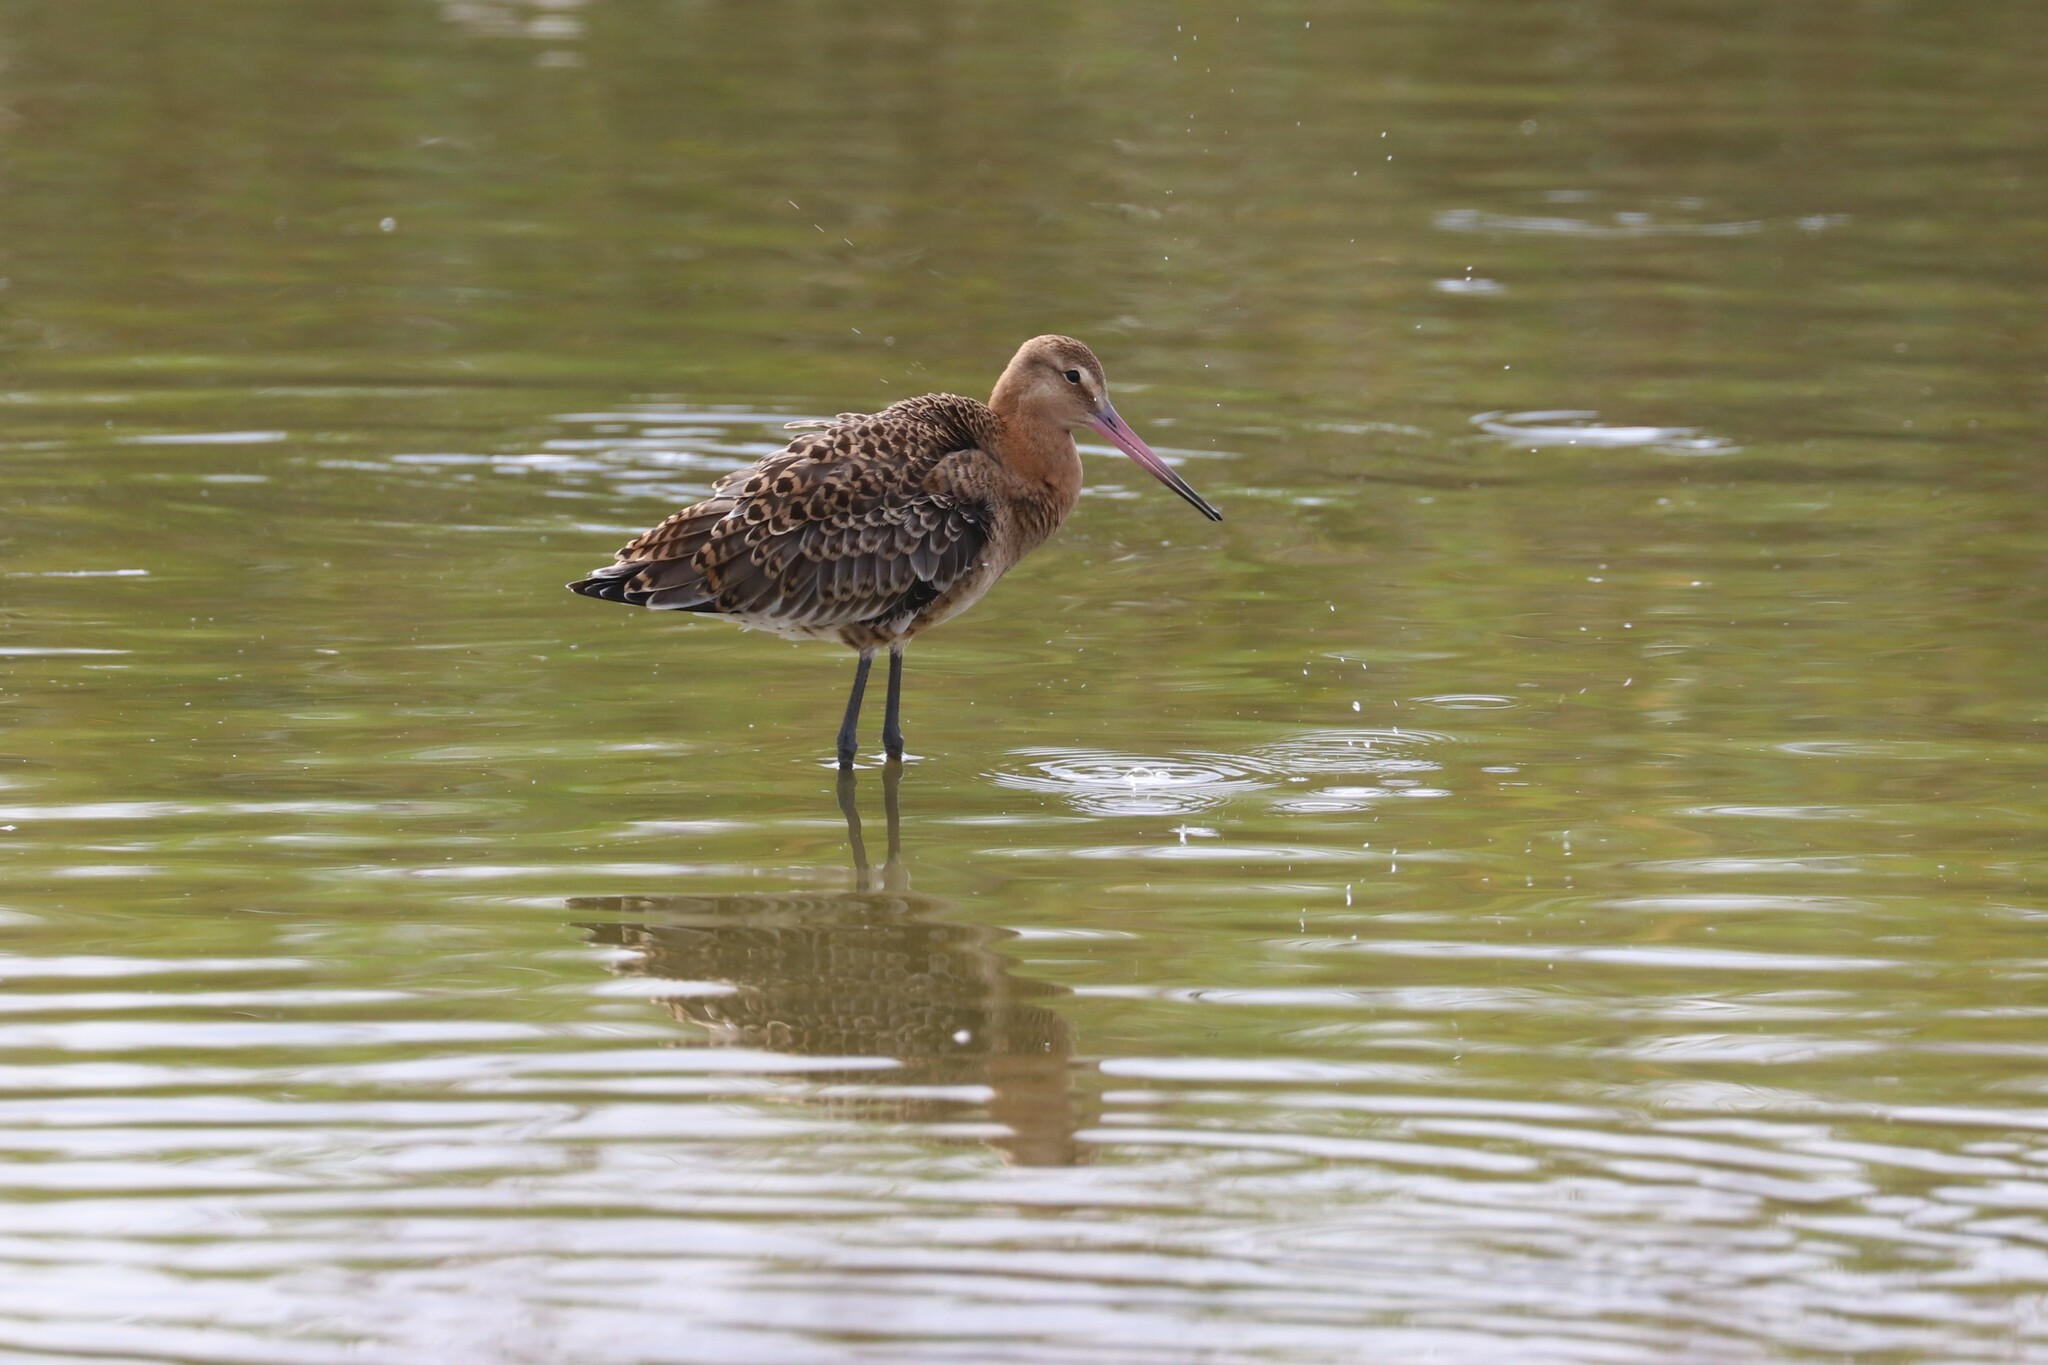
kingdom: Animalia
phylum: Chordata
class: Aves
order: Charadriiformes
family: Scolopacidae
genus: Limosa
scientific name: Limosa limosa
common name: Black-tailed godwit
